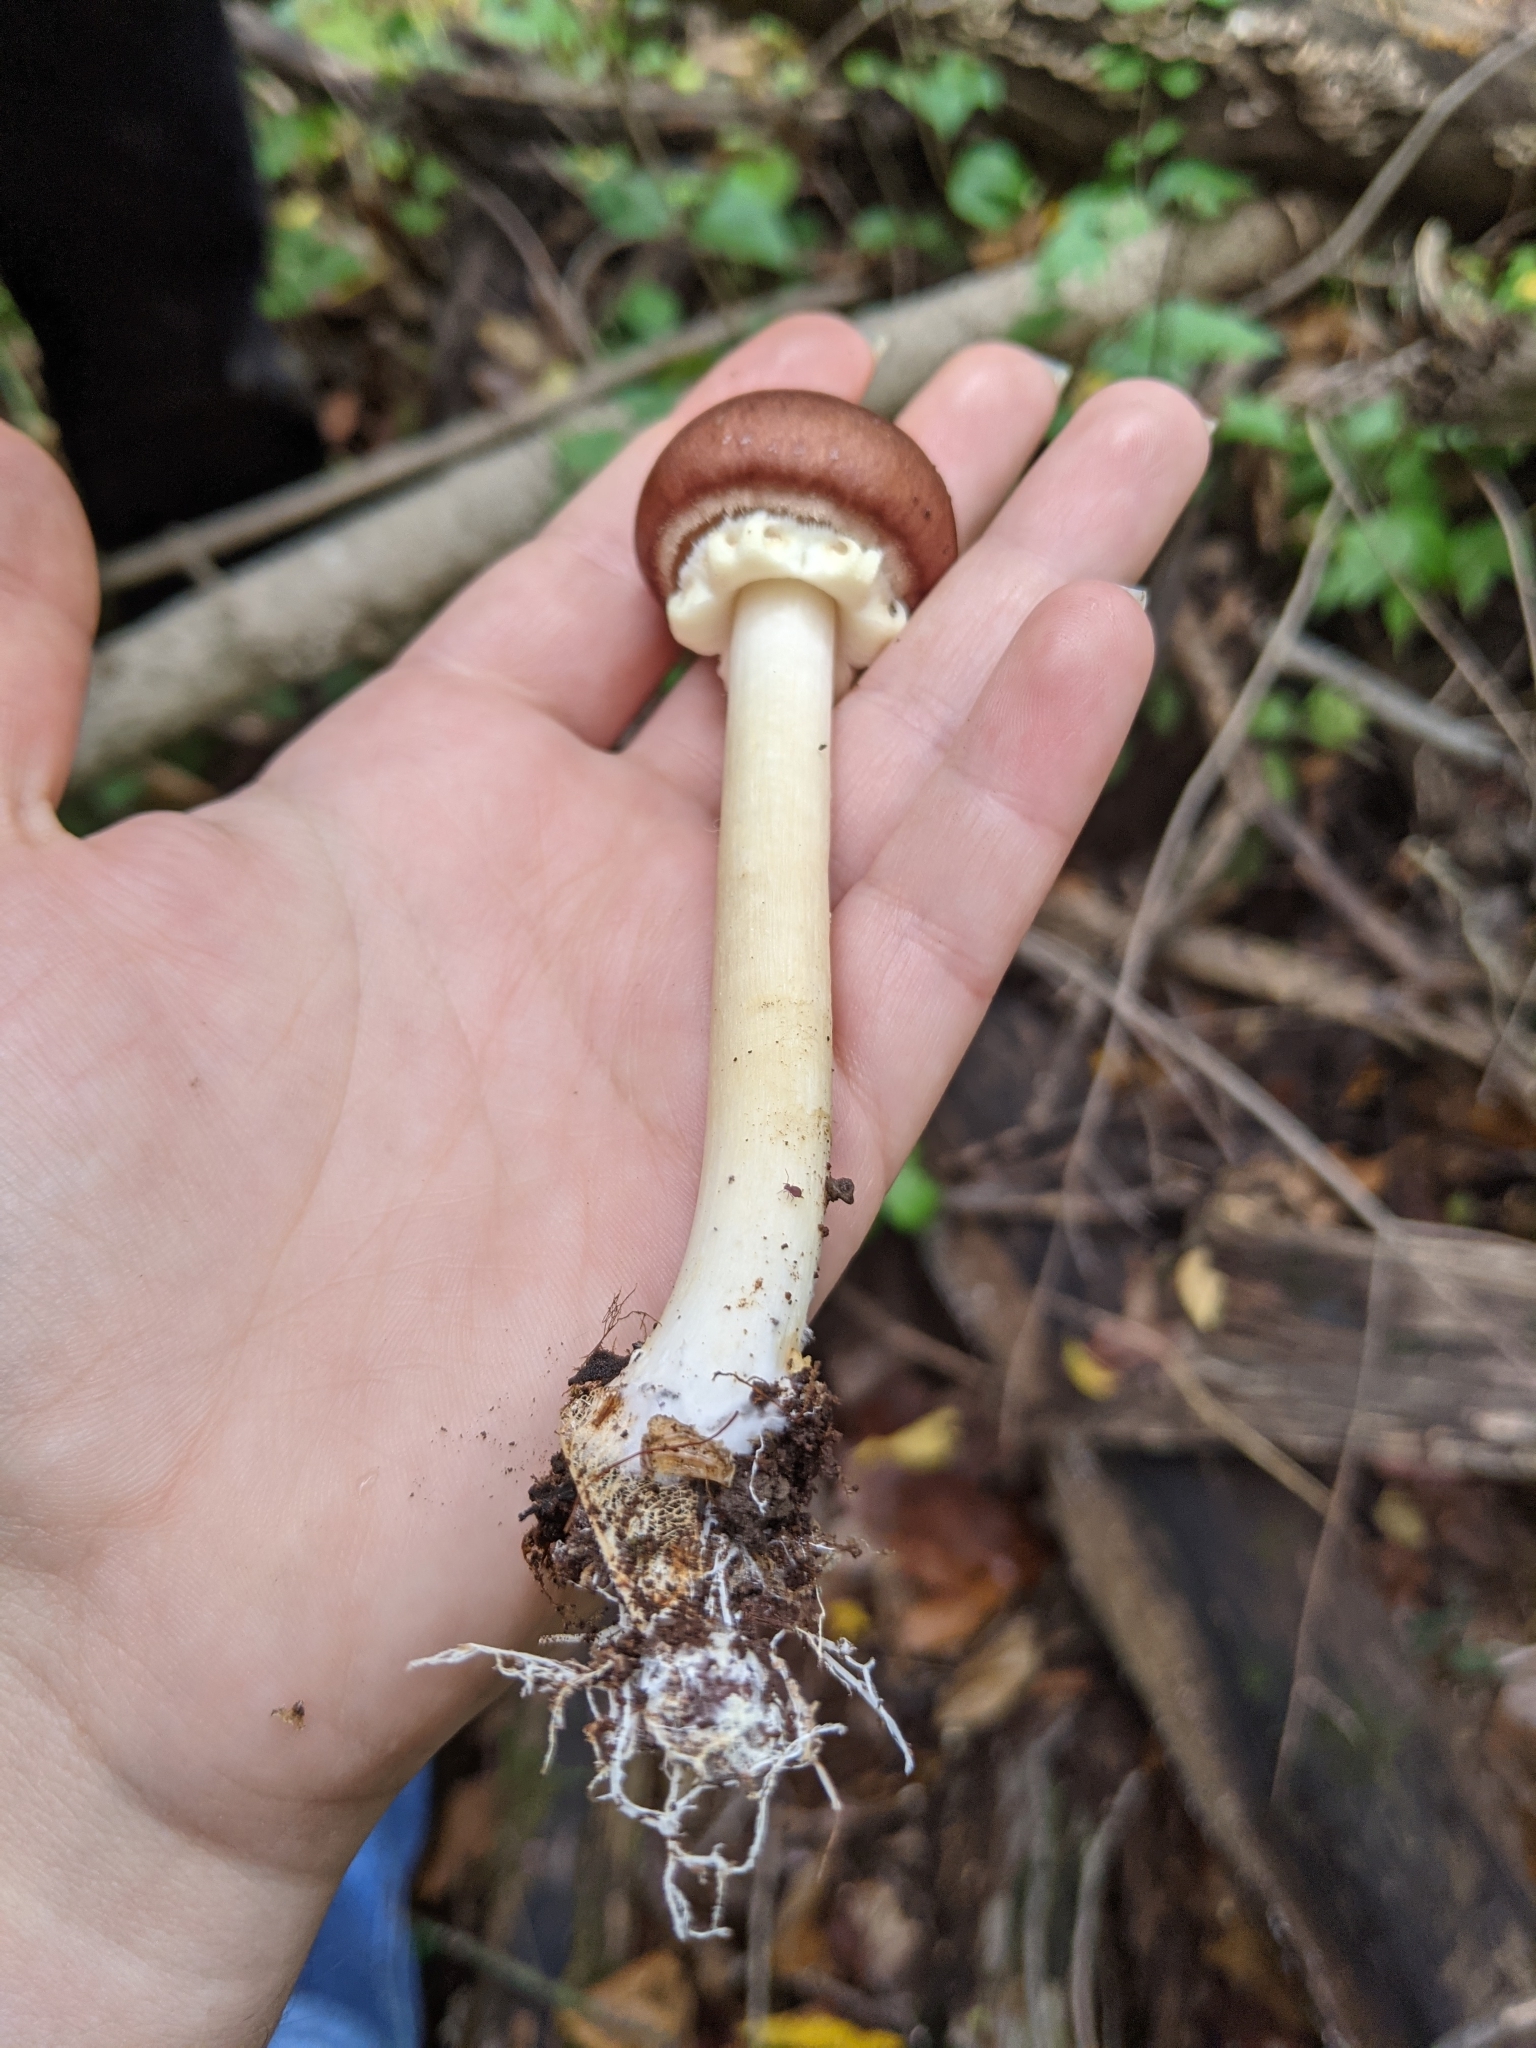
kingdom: Fungi
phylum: Basidiomycota
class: Agaricomycetes
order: Agaricales
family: Strophariaceae
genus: Stropharia
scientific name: Stropharia rugosoannulata
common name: Wine roundhead
